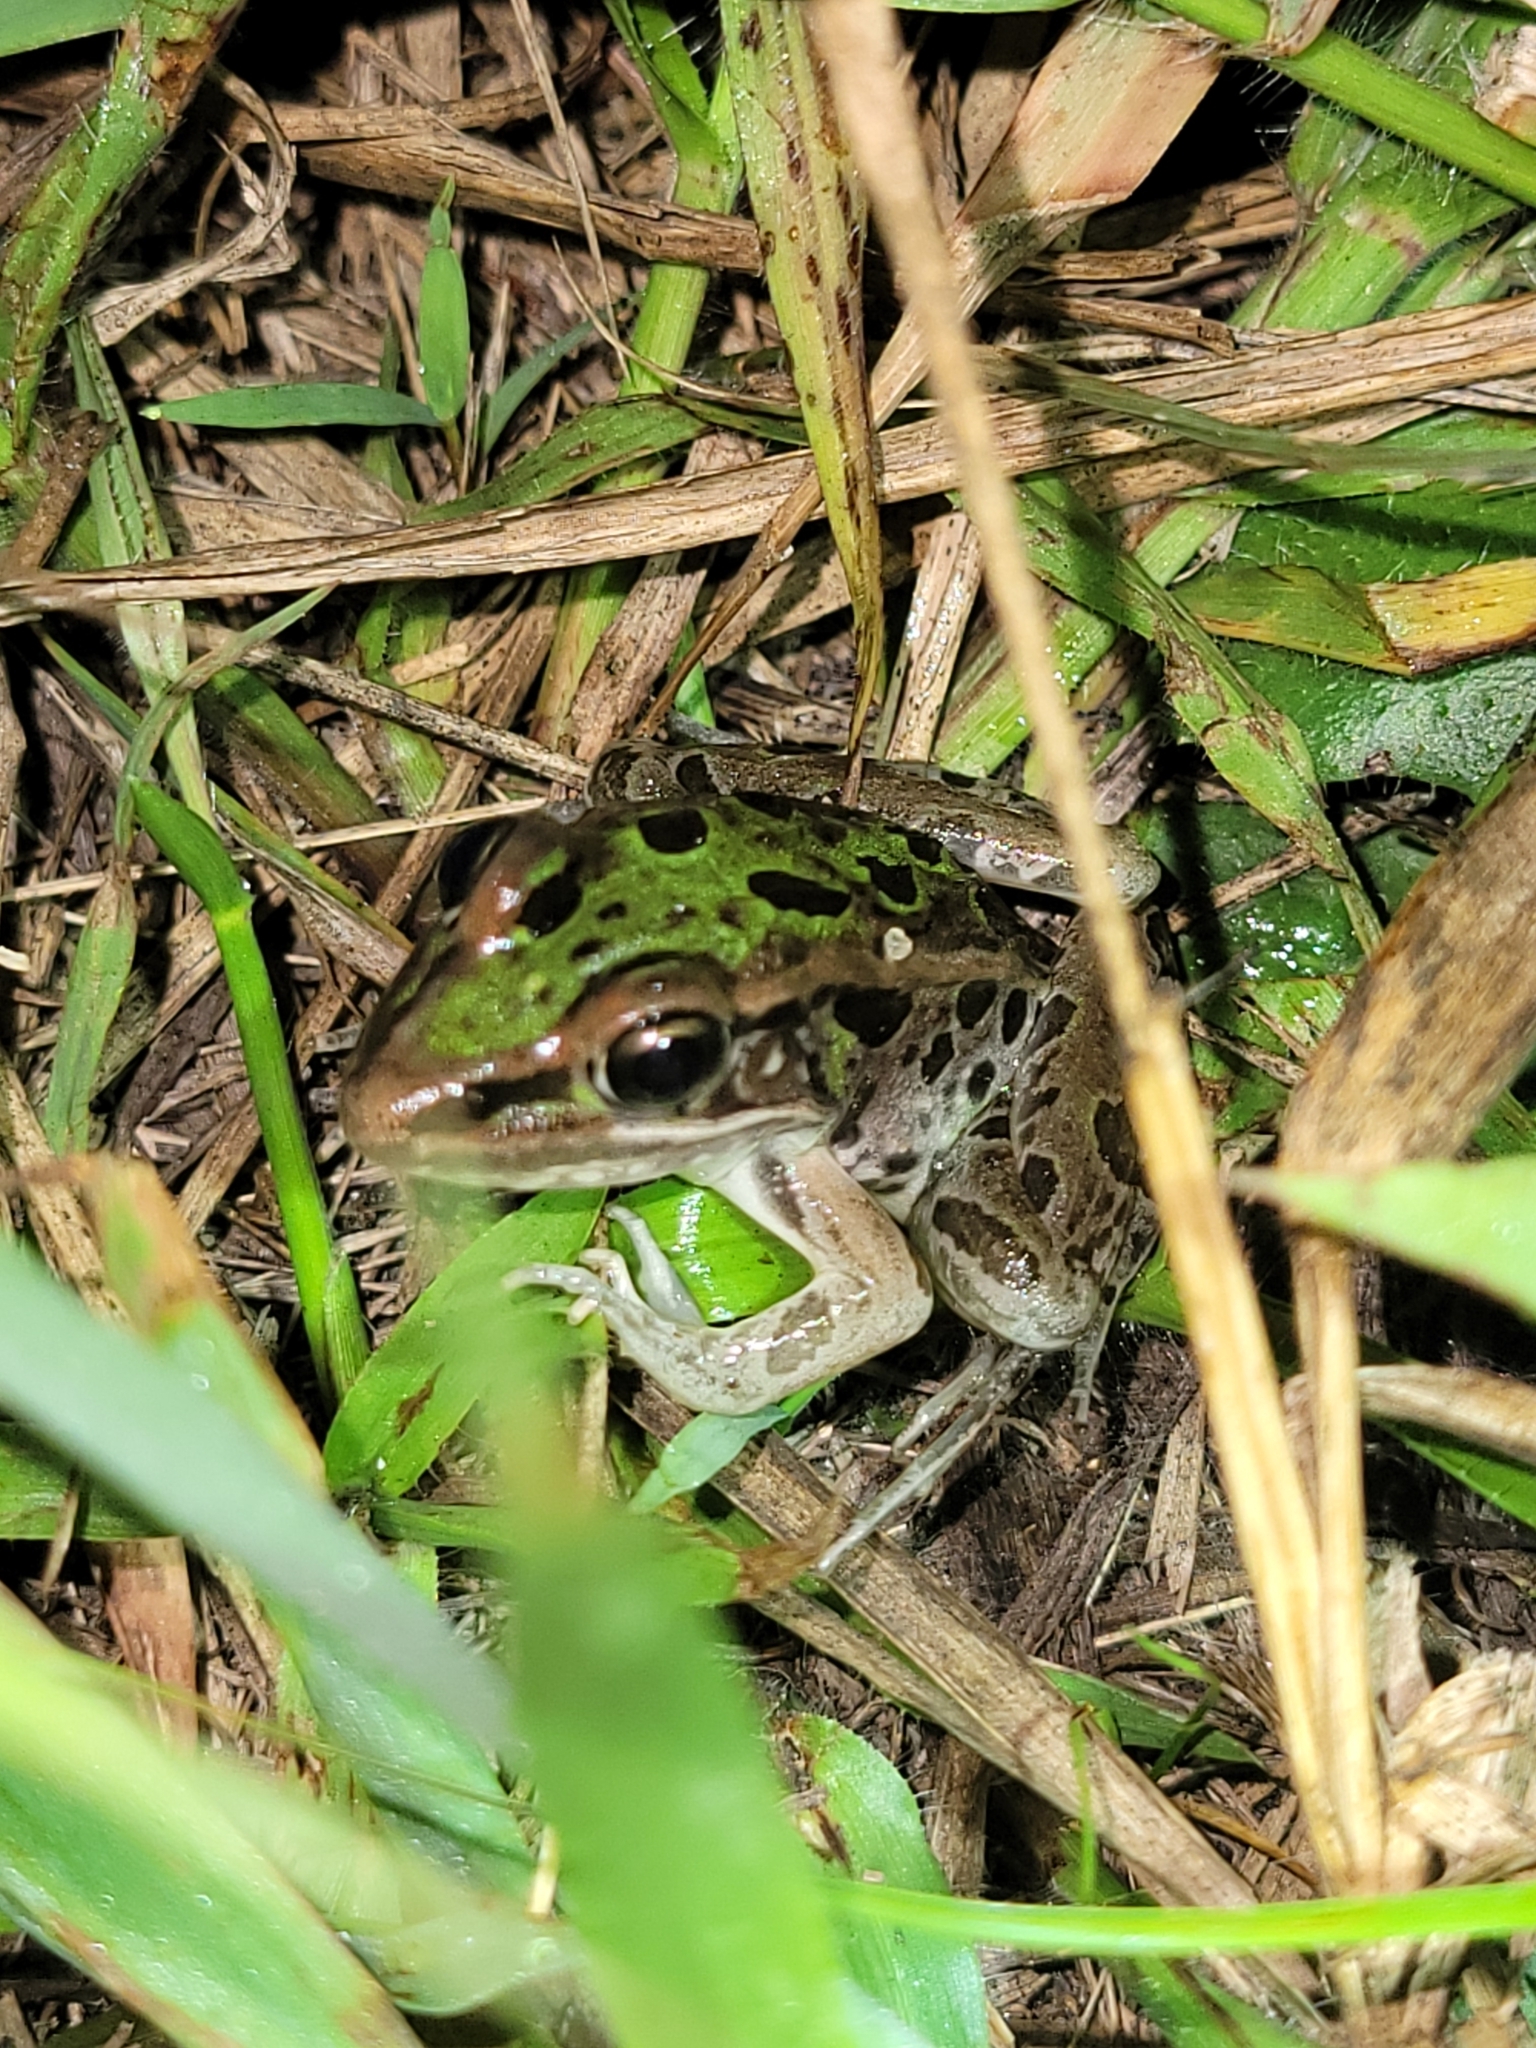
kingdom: Animalia
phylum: Chordata
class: Amphibia
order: Anura
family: Ranidae
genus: Lithobates
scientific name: Lithobates sphenocephalus
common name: Southern leopard frog
